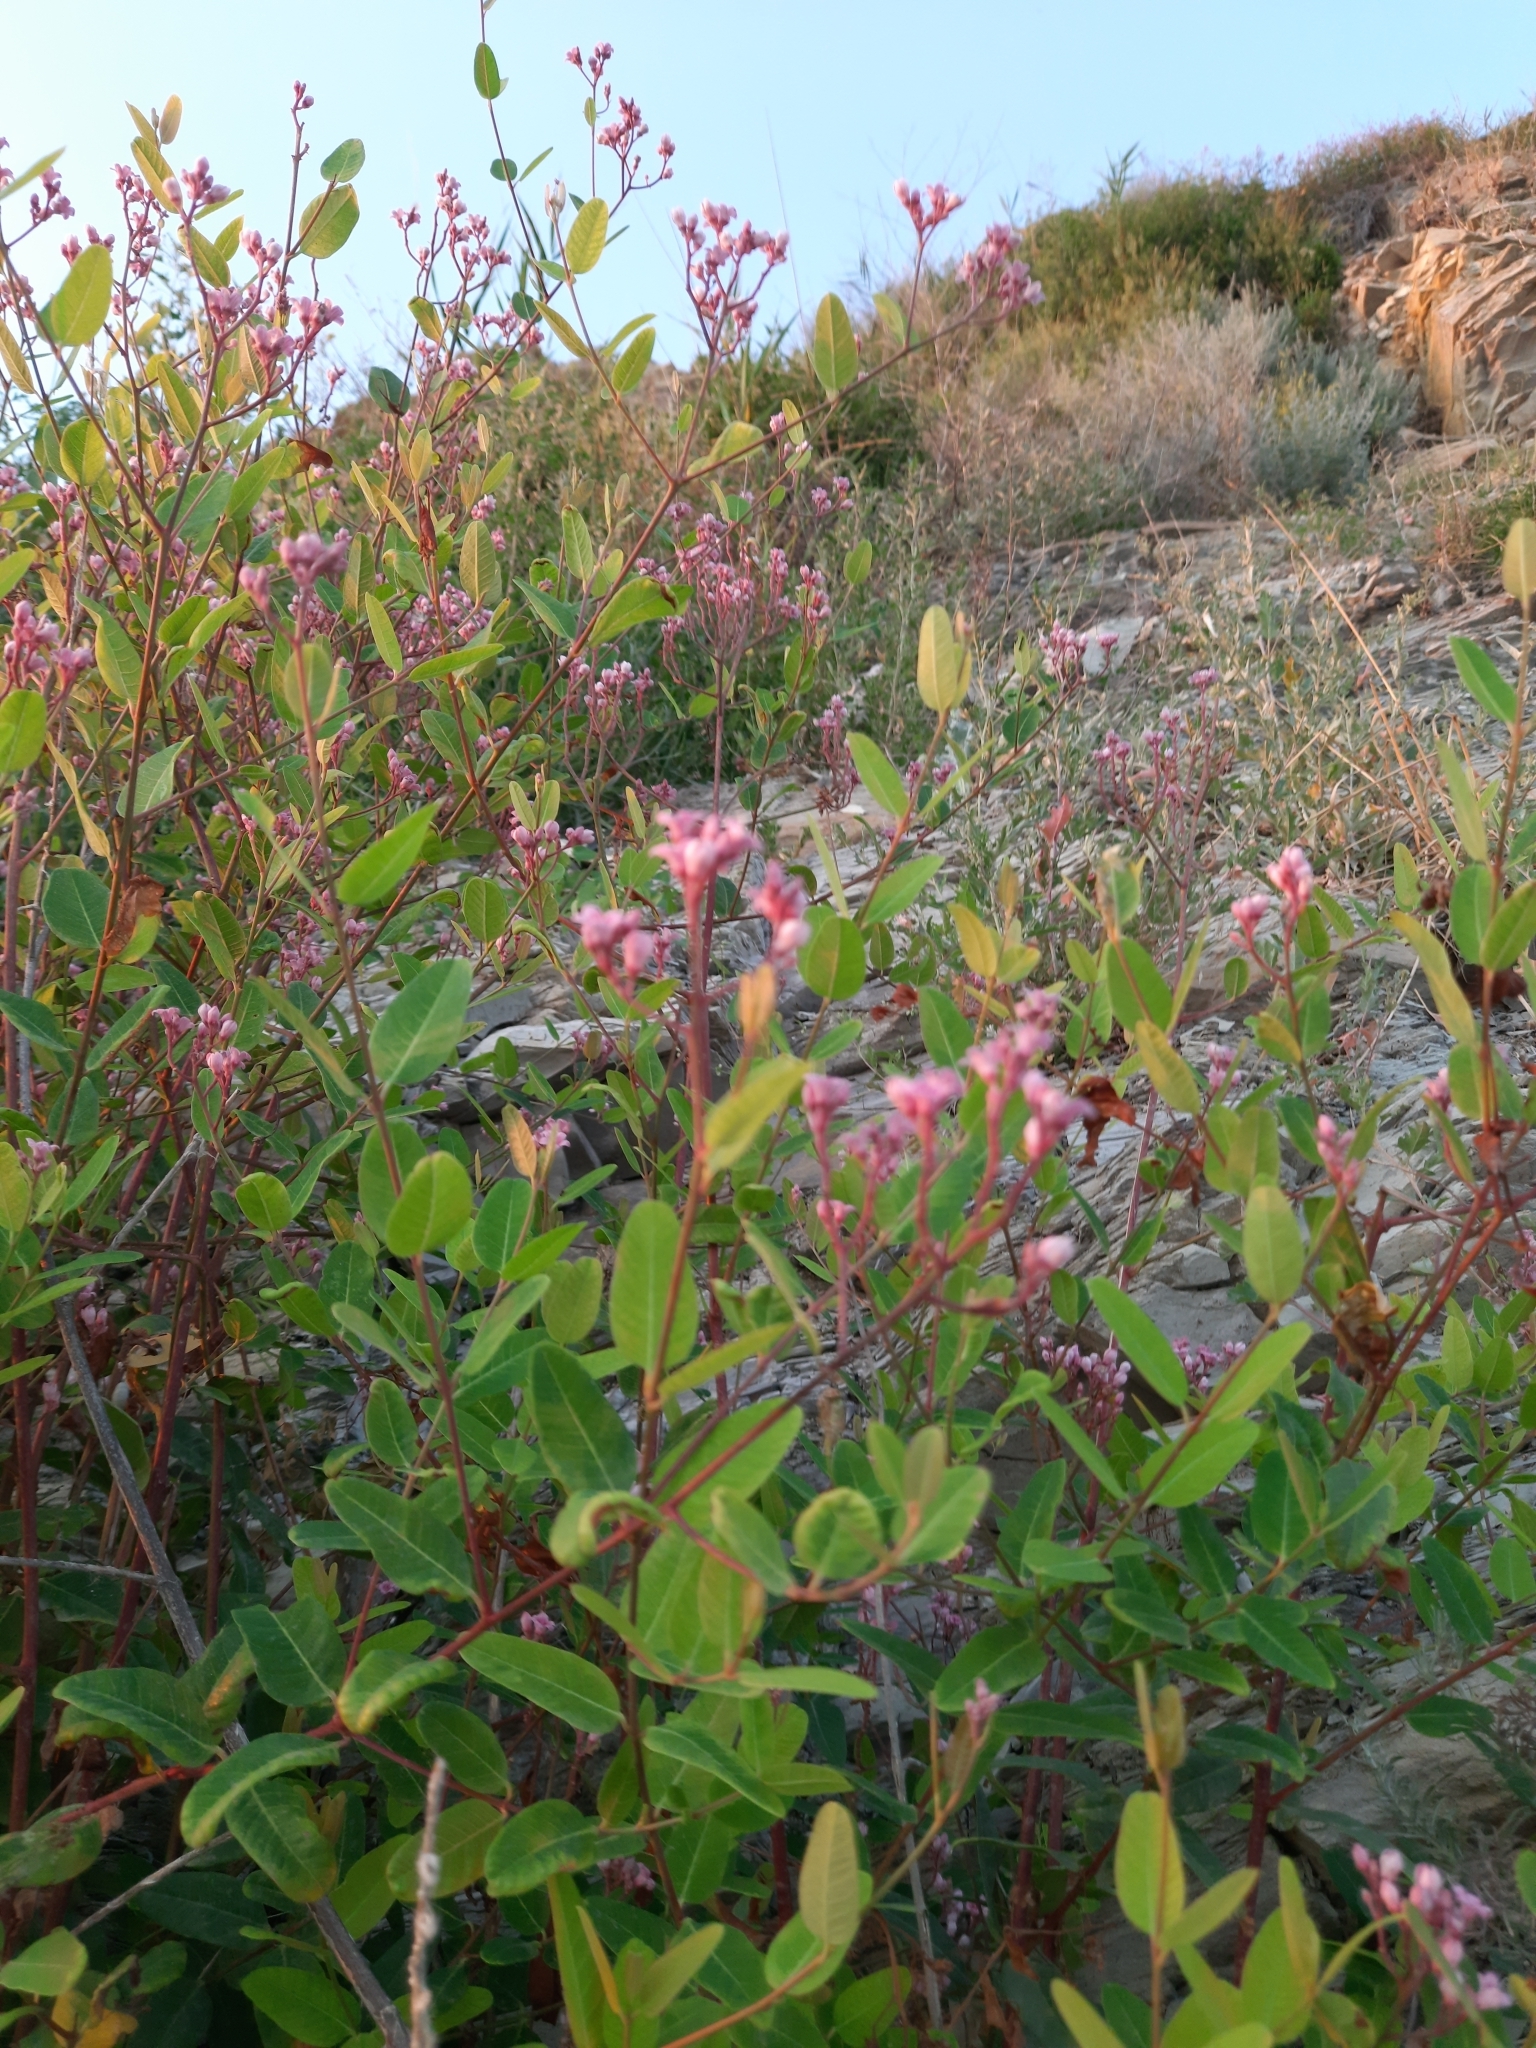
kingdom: Plantae
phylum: Tracheophyta
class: Magnoliopsida
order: Gentianales
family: Apocynaceae
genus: Poacynum
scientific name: Poacynum venetum
